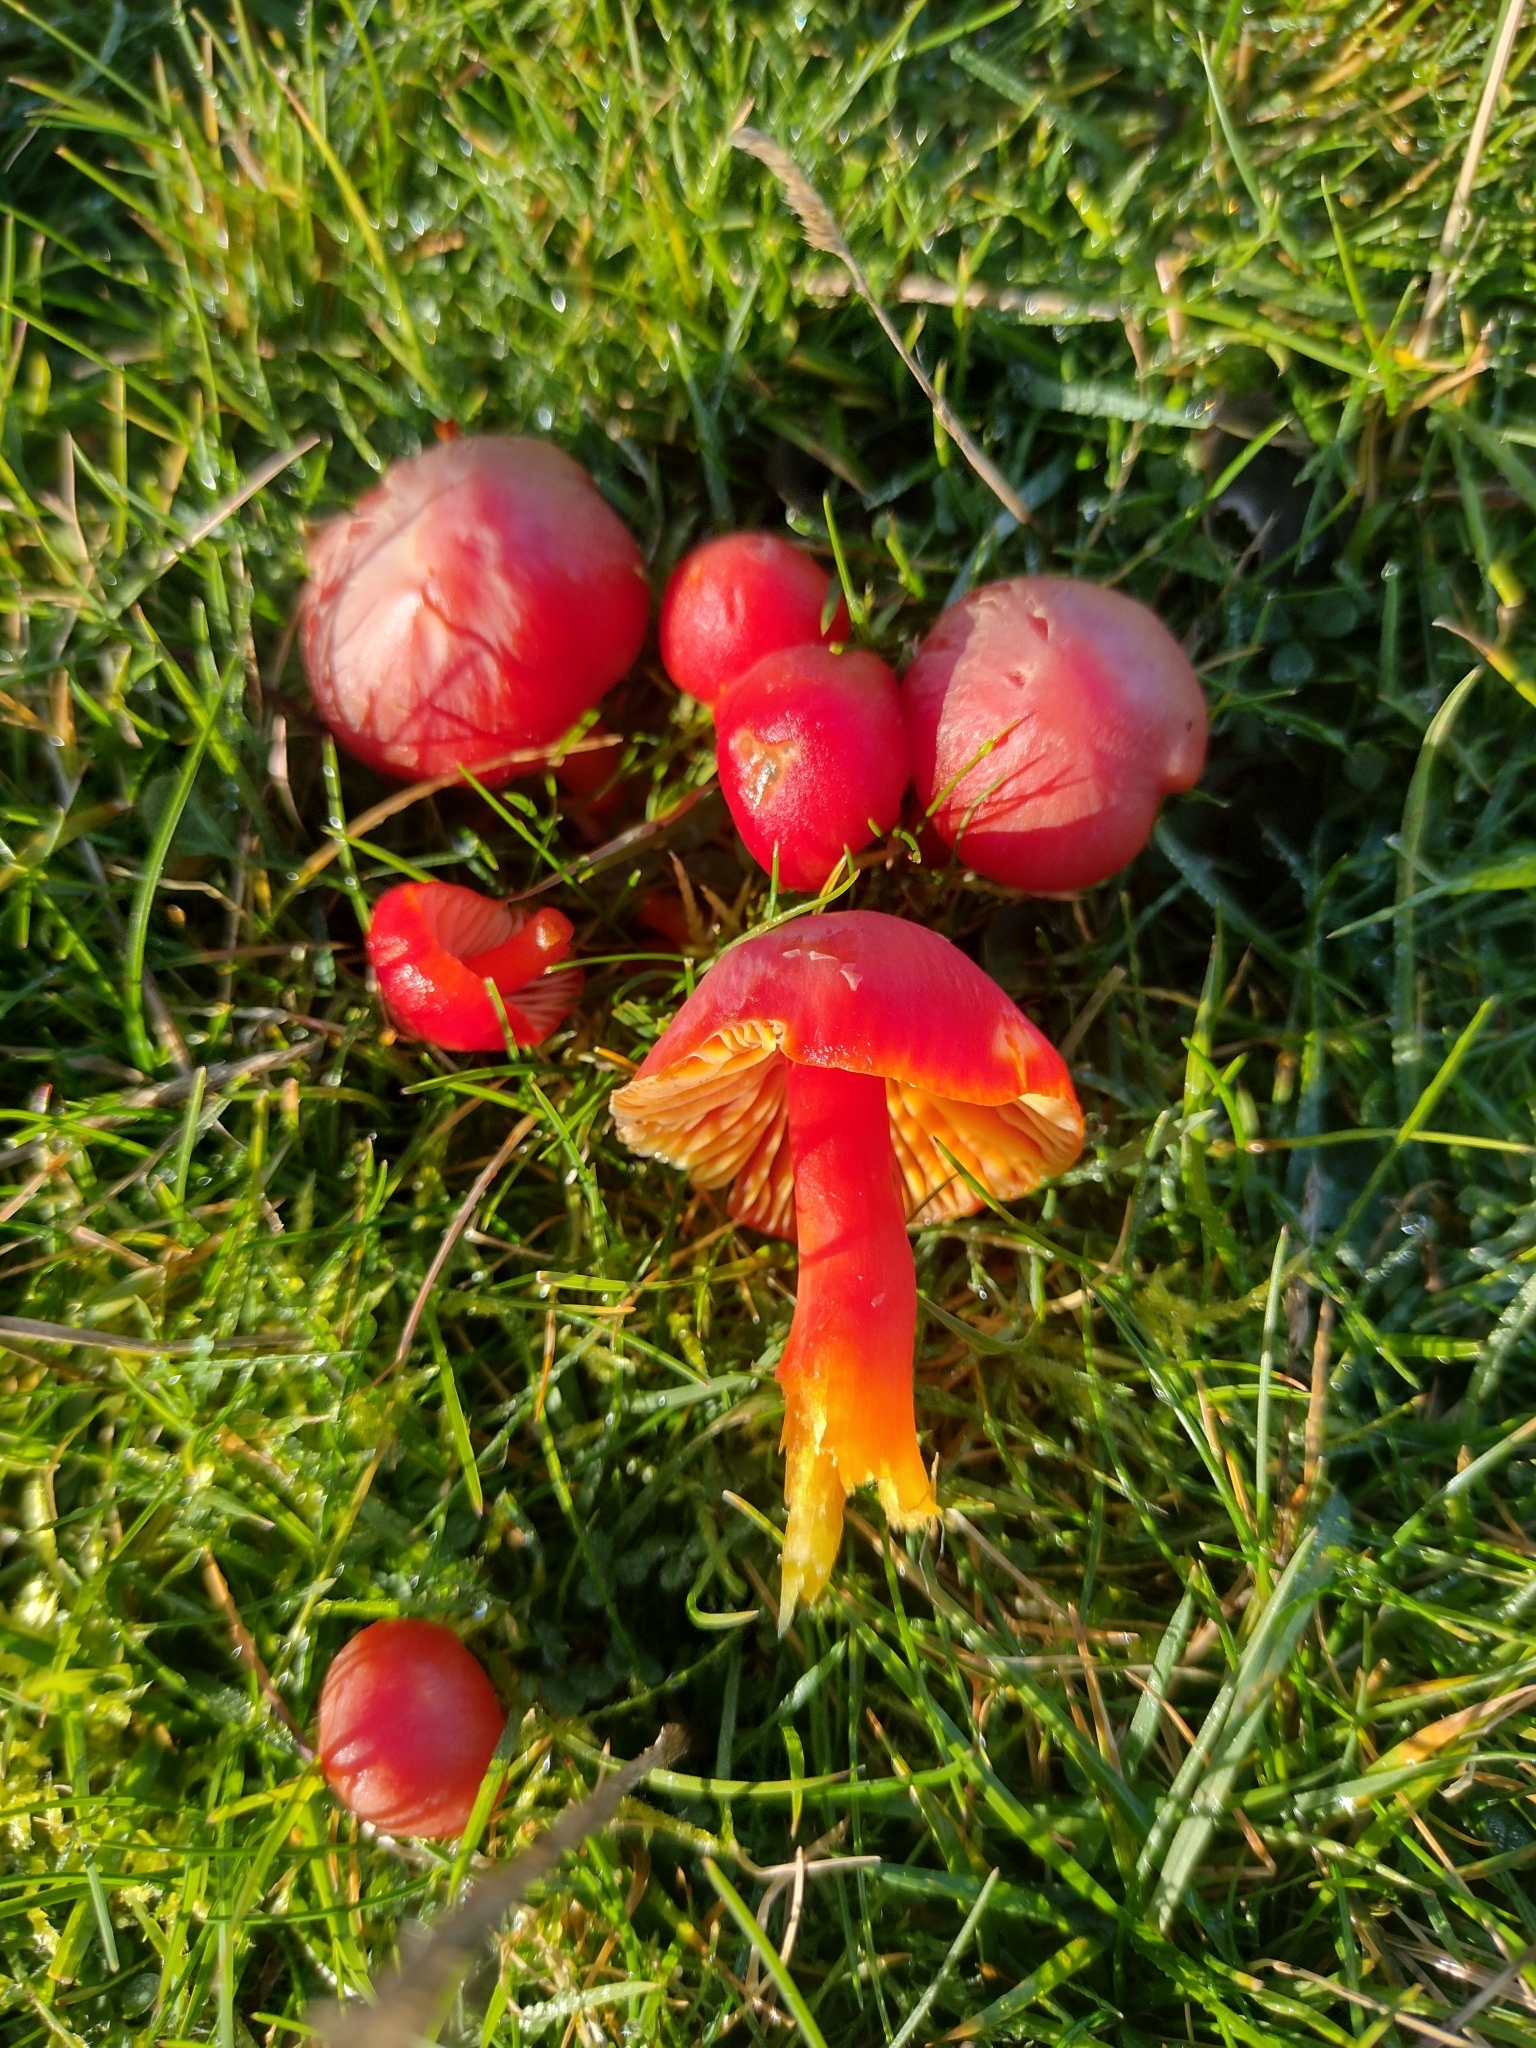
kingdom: Fungi
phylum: Basidiomycota
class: Agaricomycetes
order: Agaricales
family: Hygrophoraceae
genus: Hygrocybe
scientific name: Hygrocybe coccinea
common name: Scarlet hood
